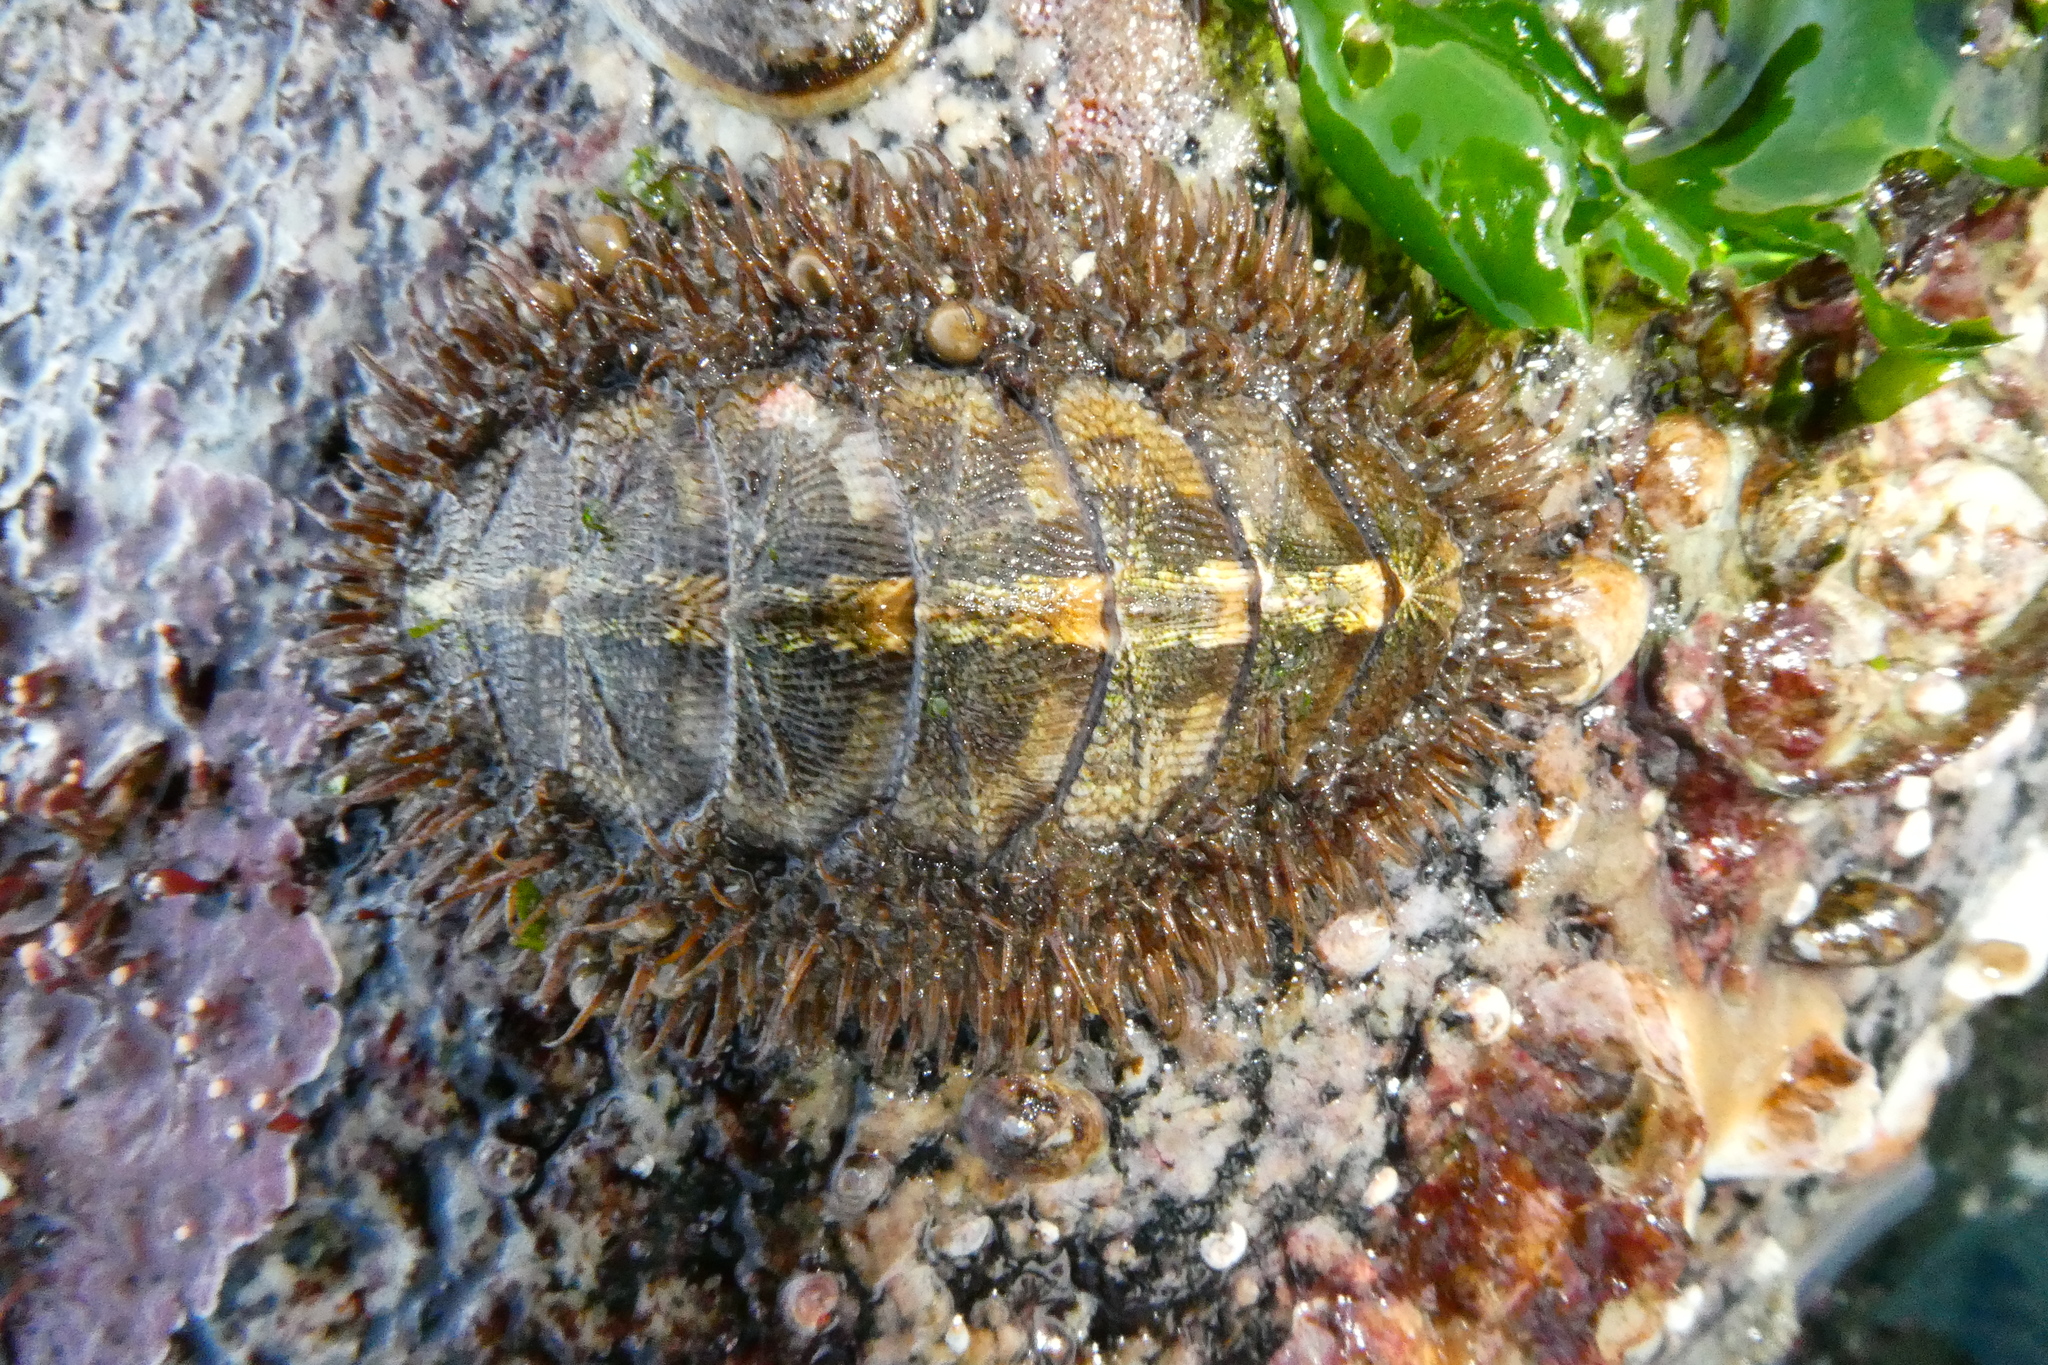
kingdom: Animalia
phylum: Mollusca
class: Polyplacophora
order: Chitonida
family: Mopaliidae
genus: Mopalia
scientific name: Mopalia muscosa
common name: Mossy chiton
